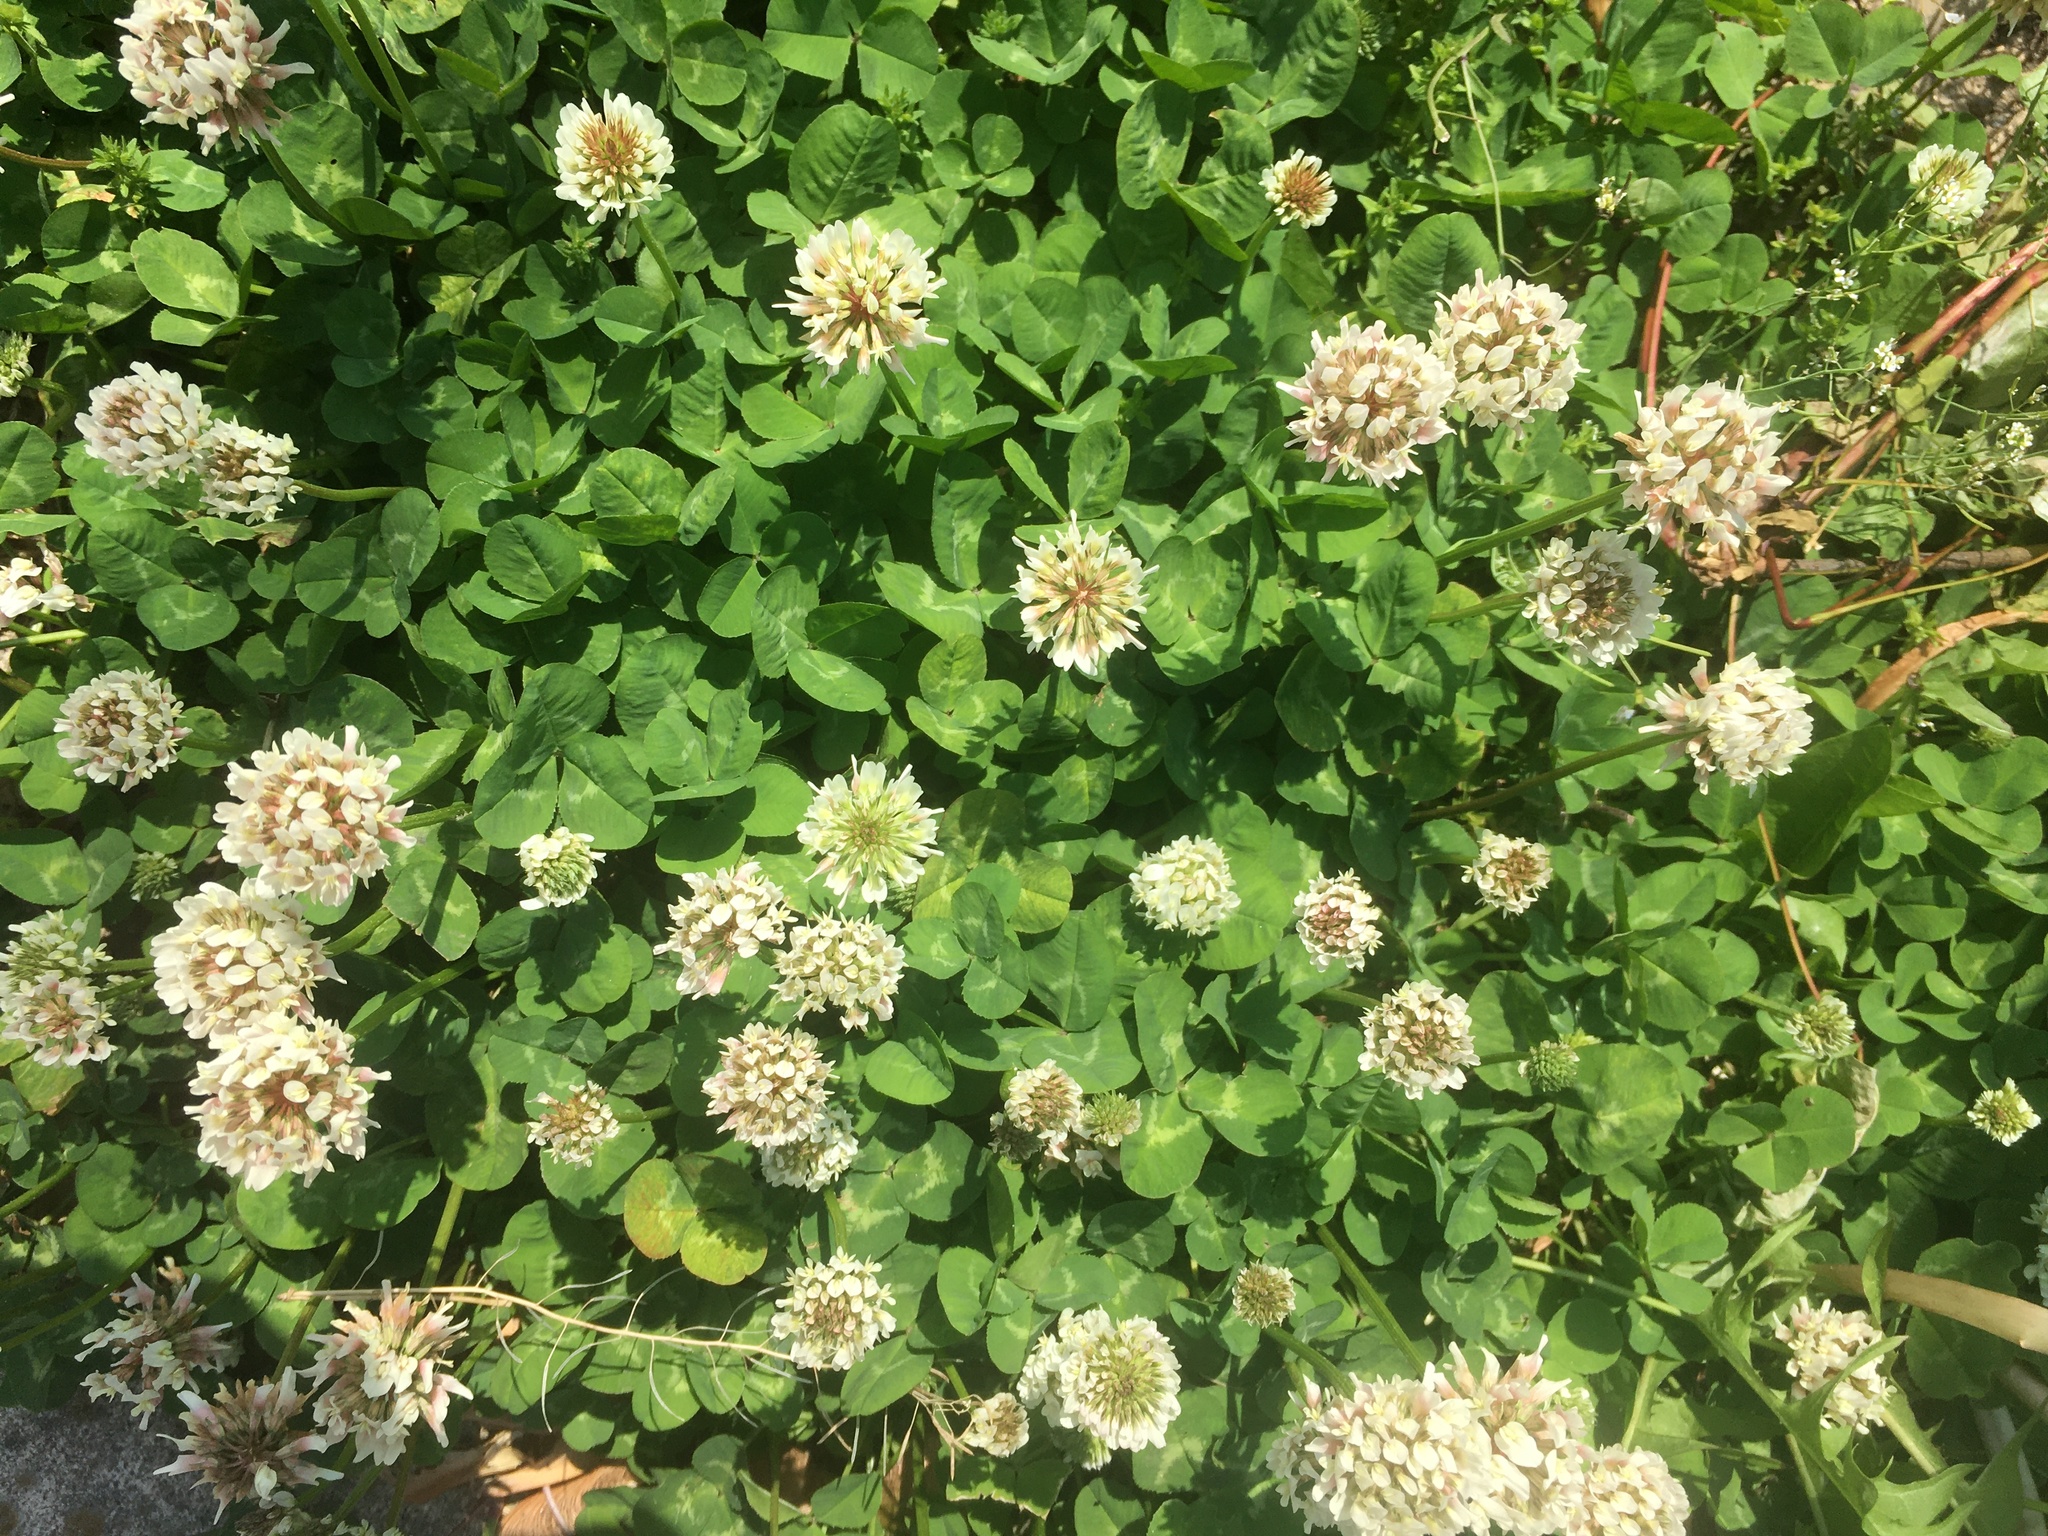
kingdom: Plantae
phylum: Tracheophyta
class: Magnoliopsida
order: Fabales
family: Fabaceae
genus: Trifolium
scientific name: Trifolium repens
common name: White clover
